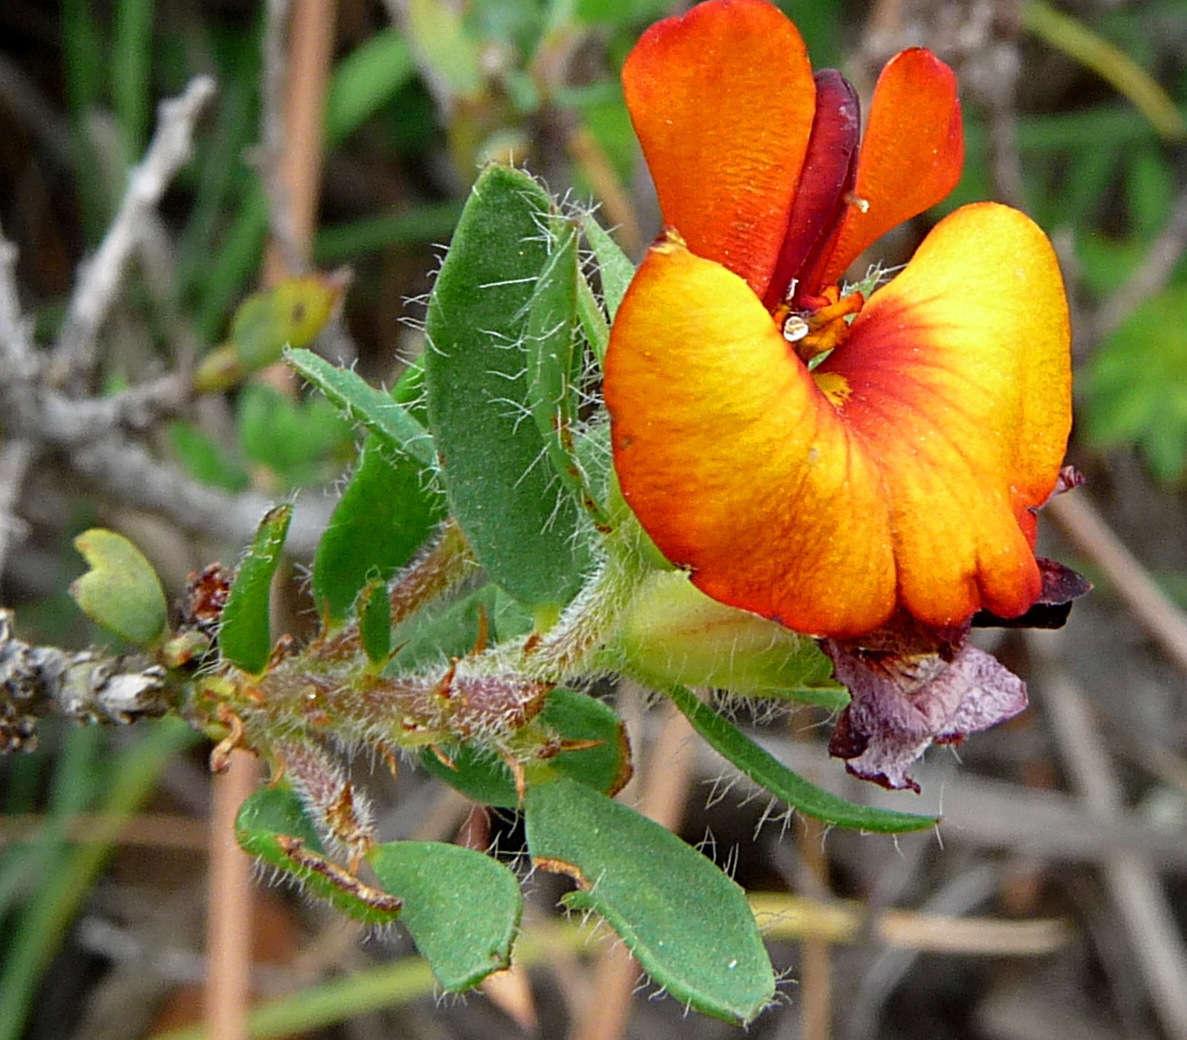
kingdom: Plantae
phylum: Tracheophyta
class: Magnoliopsida
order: Fabales
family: Fabaceae
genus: Pultenaea
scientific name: Pultenaea humilis
